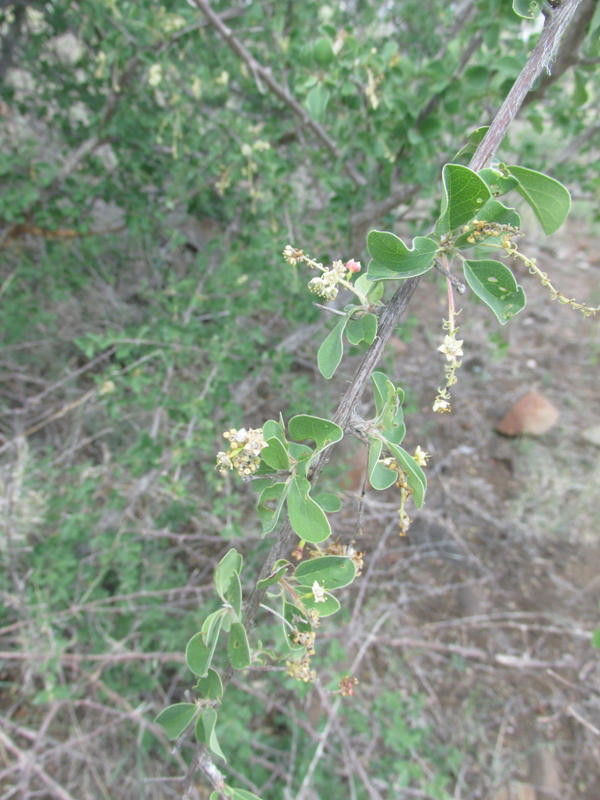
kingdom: Plantae
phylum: Tracheophyta
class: Magnoliopsida
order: Myrtales
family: Combretaceae
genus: Terminalia
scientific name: Terminalia prunioides
